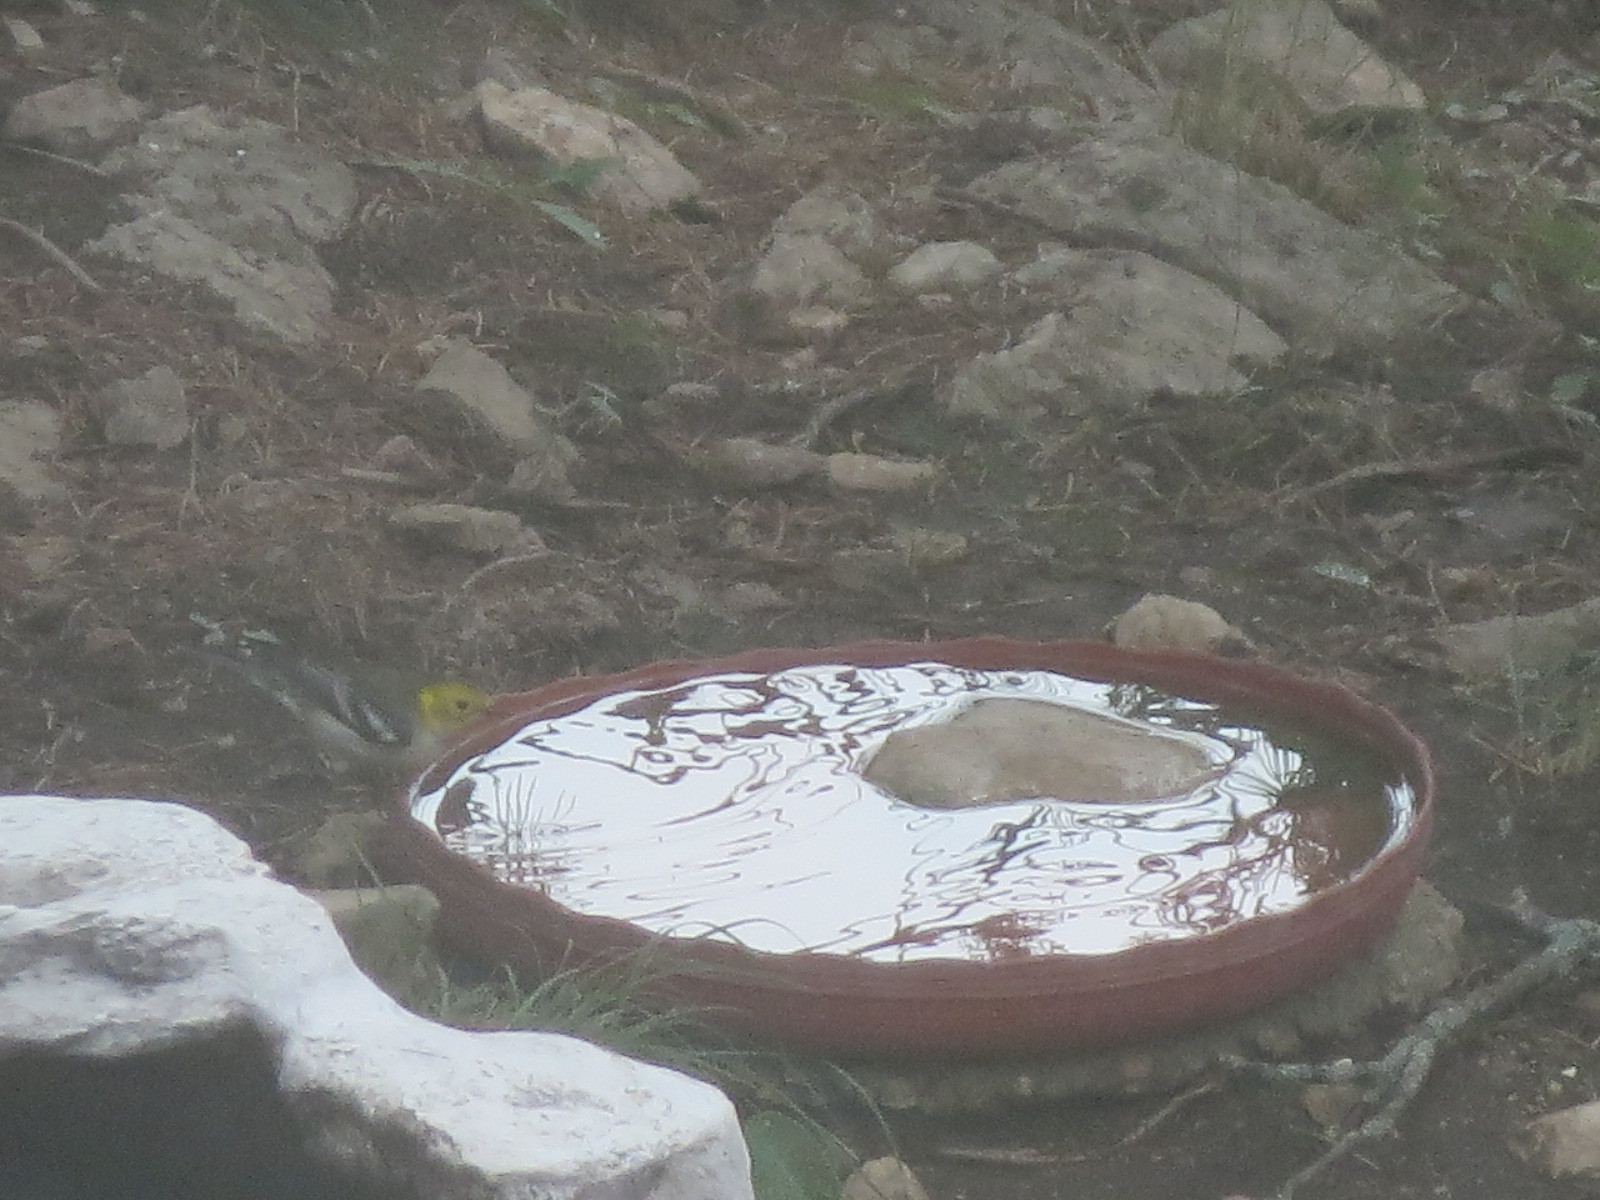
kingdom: Animalia
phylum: Chordata
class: Aves
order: Passeriformes
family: Parulidae
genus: Setophaga
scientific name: Setophaga virens
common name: Black-throated green warbler
